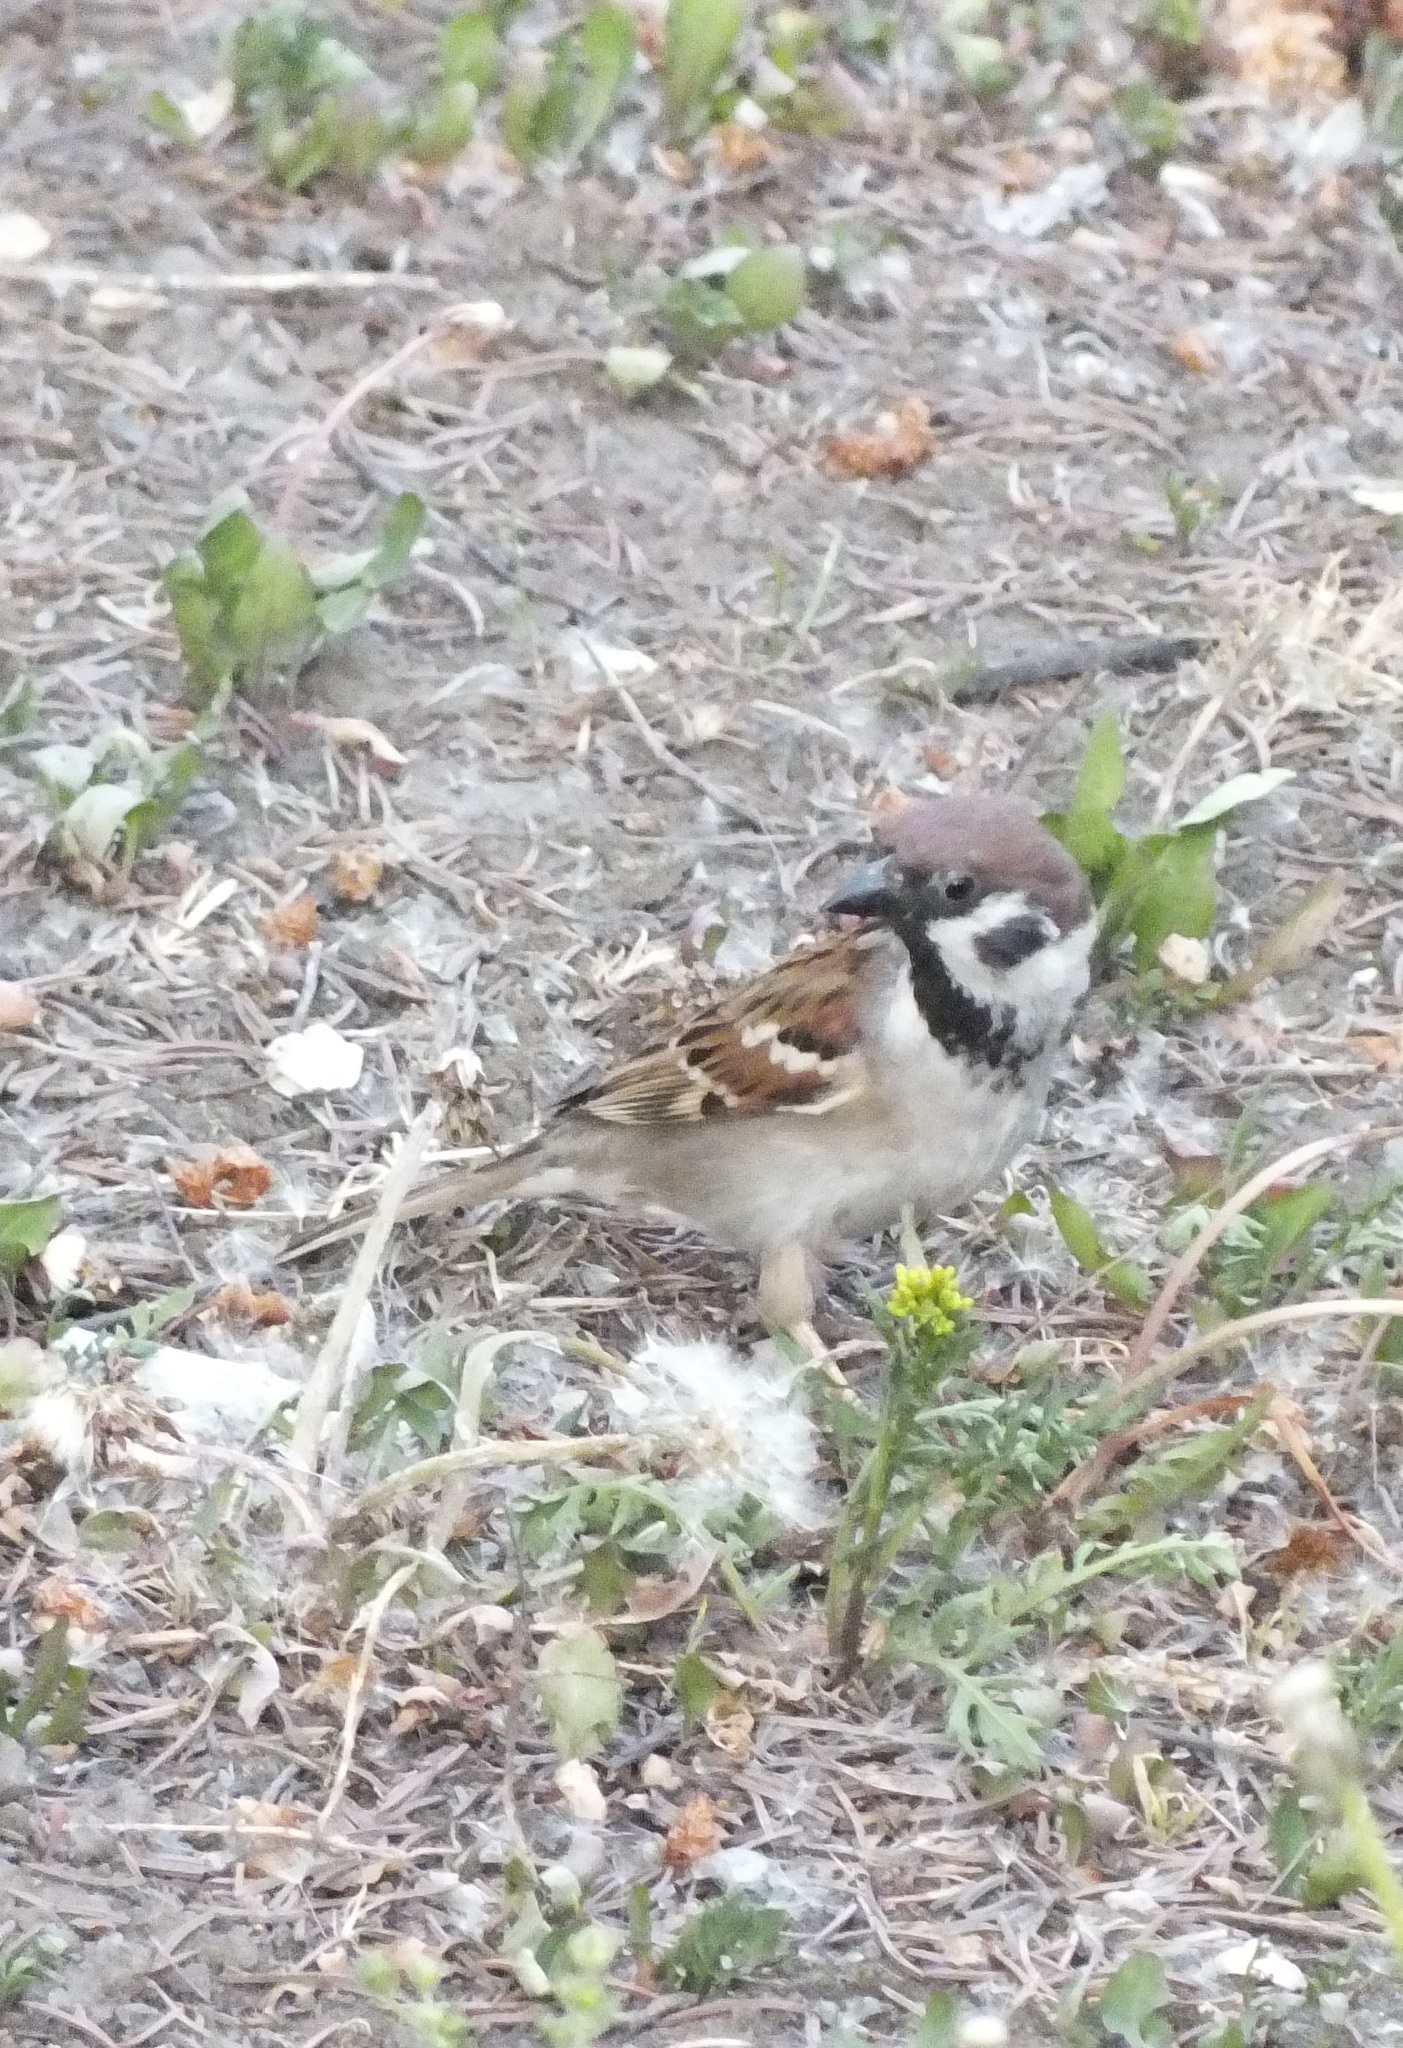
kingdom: Animalia
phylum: Chordata
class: Aves
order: Passeriformes
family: Passeridae
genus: Passer
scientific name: Passer montanus
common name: Eurasian tree sparrow
